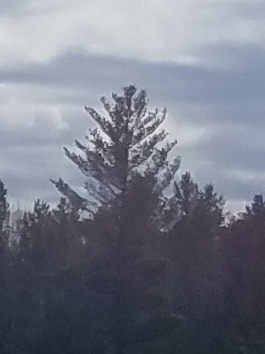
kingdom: Plantae
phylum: Tracheophyta
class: Pinopsida
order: Pinales
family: Pinaceae
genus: Pinus
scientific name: Pinus strobus
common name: Weymouth pine
